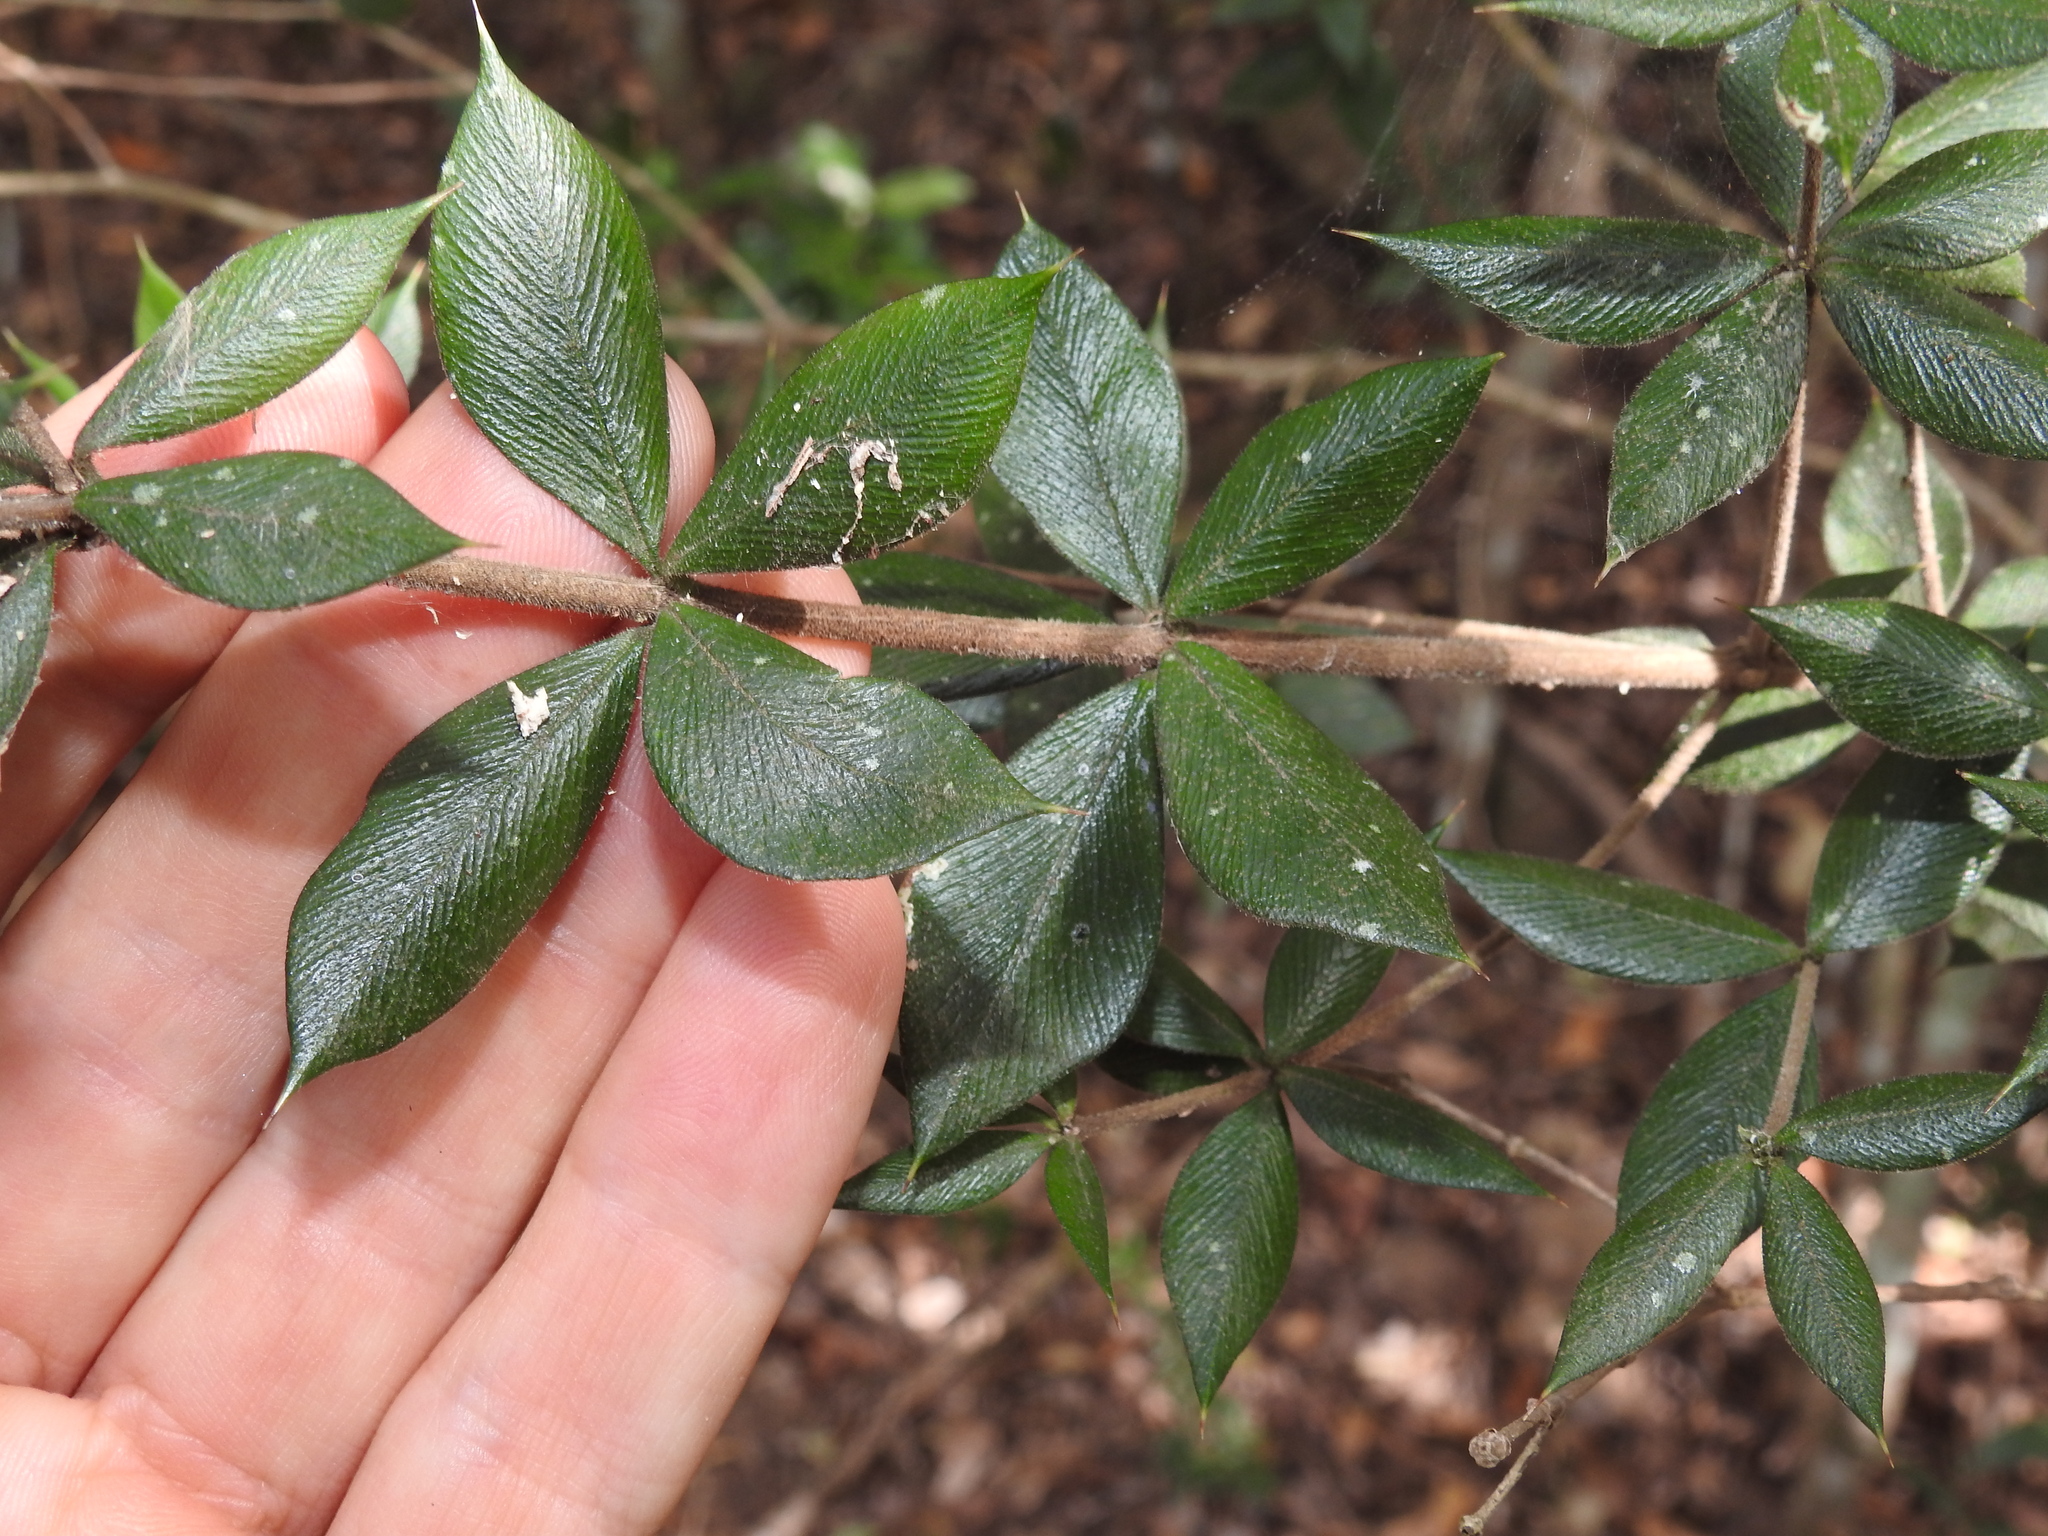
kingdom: Plantae
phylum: Tracheophyta
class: Magnoliopsida
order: Gentianales
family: Apocynaceae
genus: Alyxia
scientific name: Alyxia ruscifolia
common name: Chainfruit
